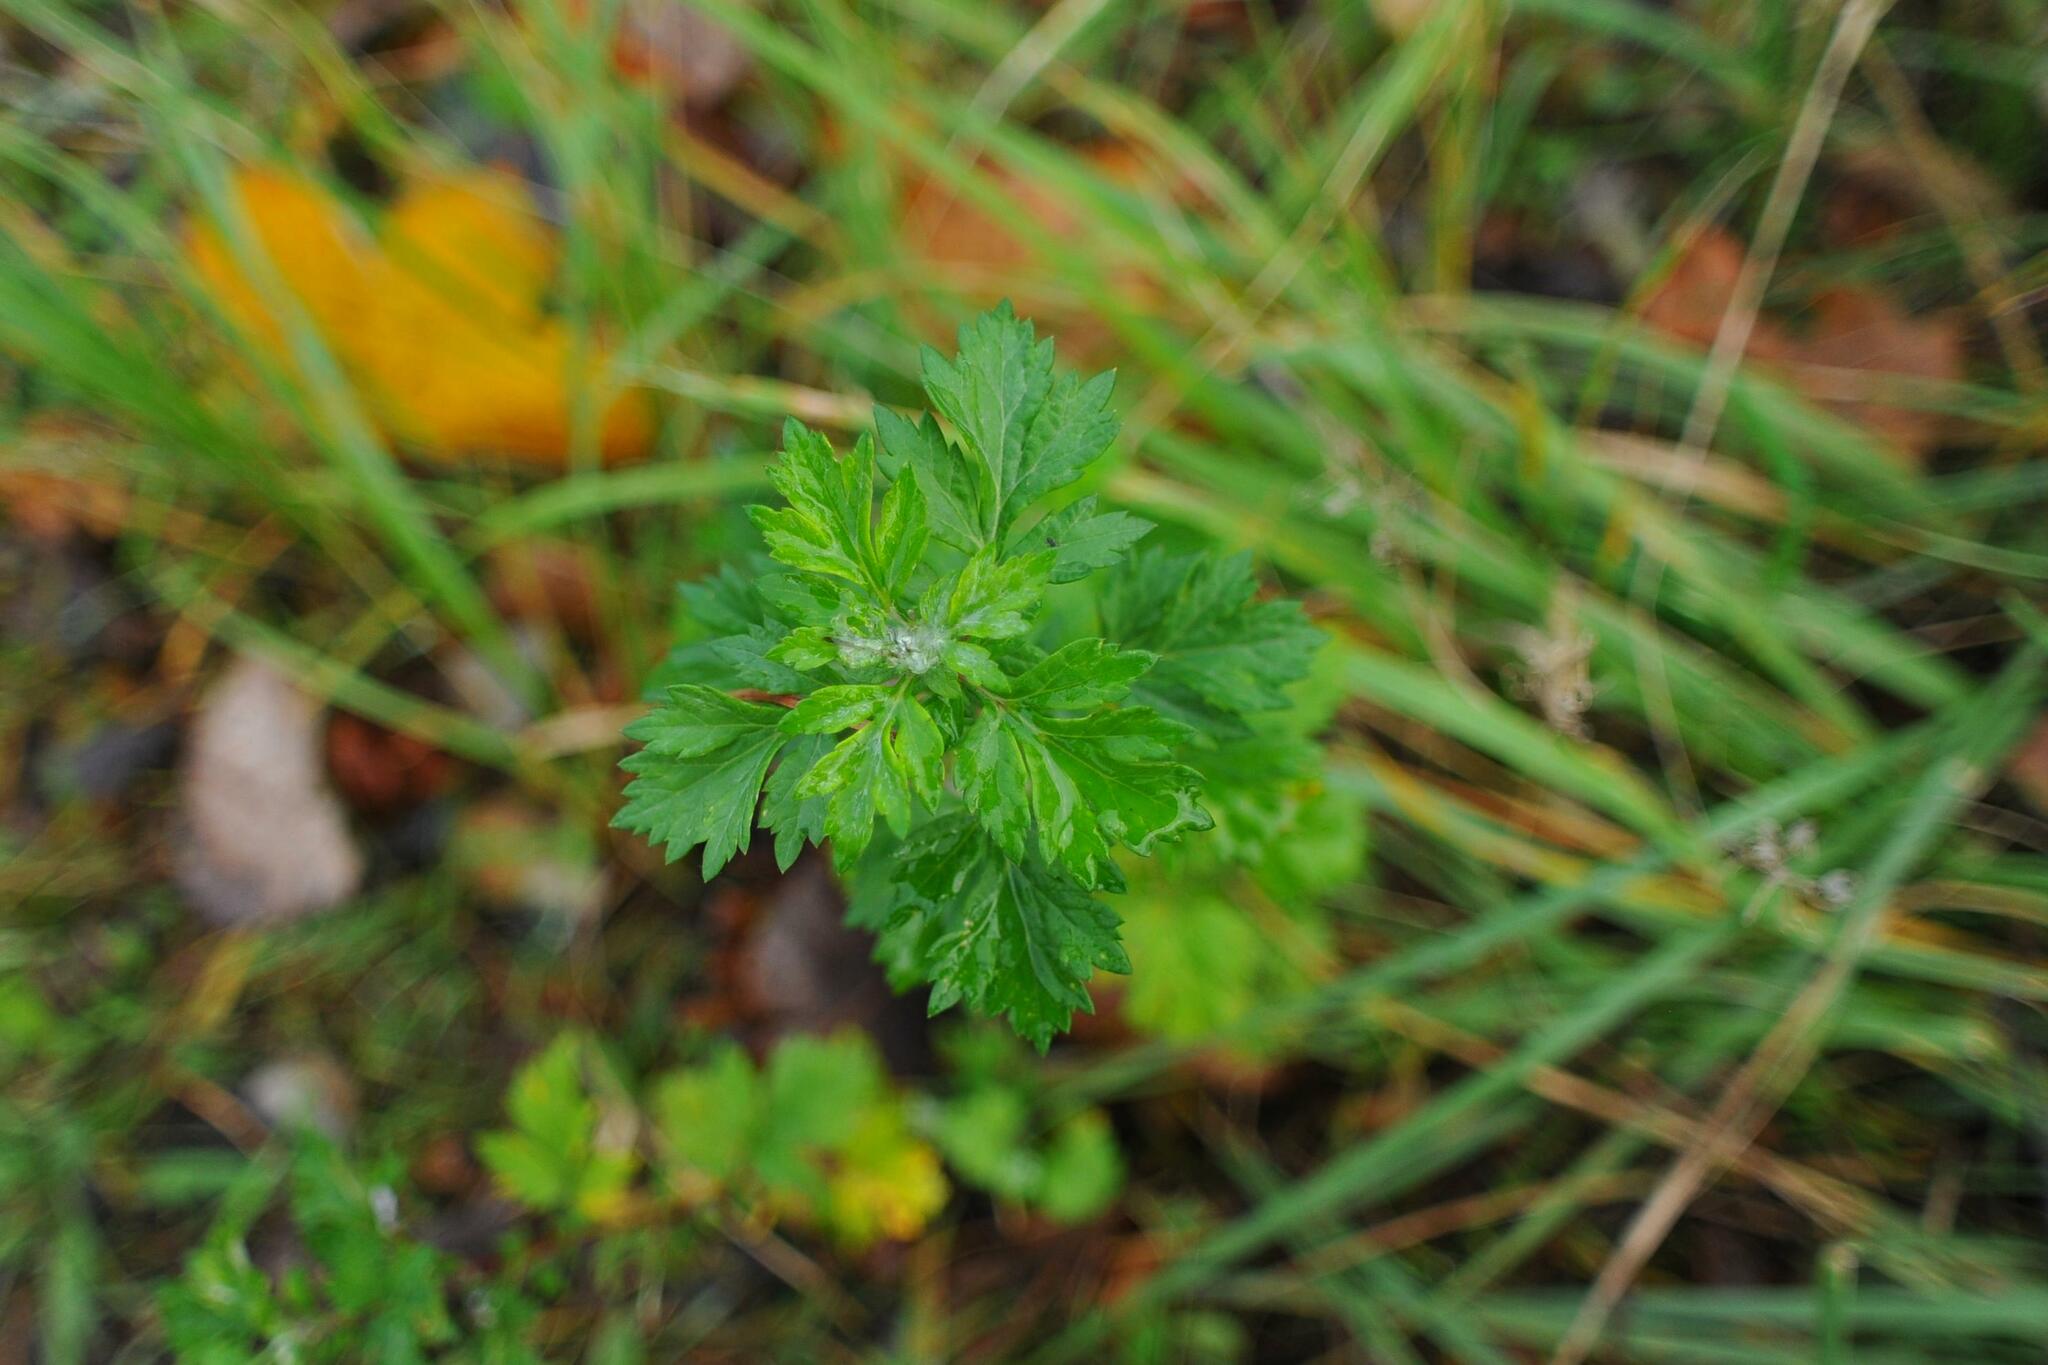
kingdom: Plantae
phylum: Tracheophyta
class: Magnoliopsida
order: Asterales
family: Asteraceae
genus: Artemisia
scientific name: Artemisia vulgaris
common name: Mugwort
